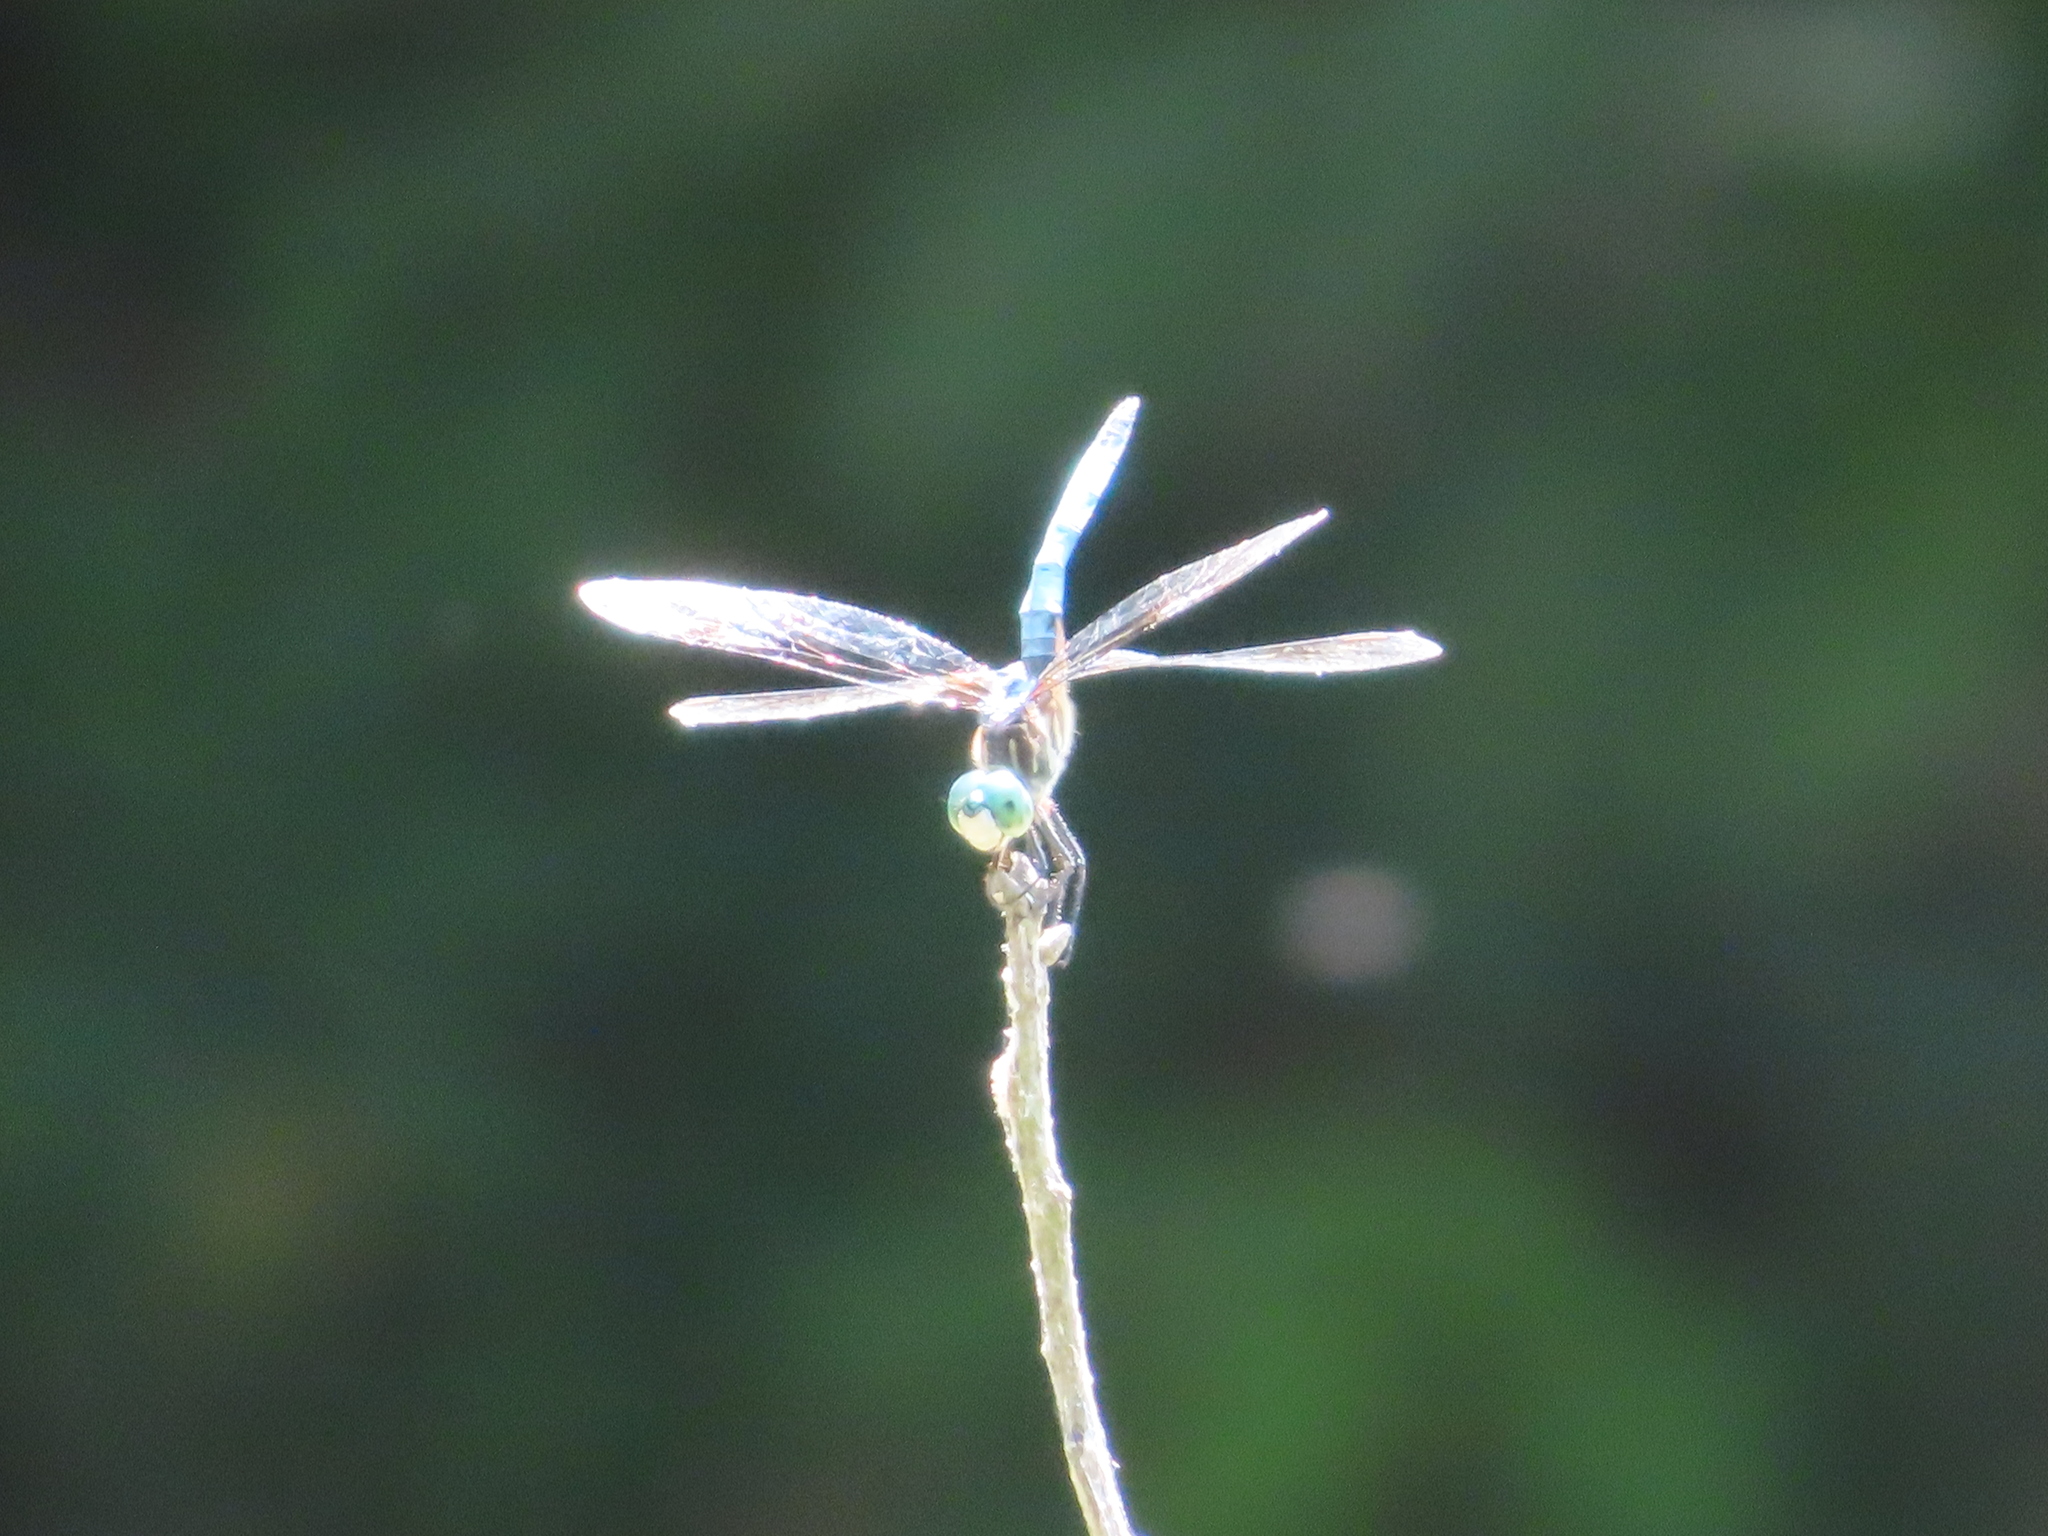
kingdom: Animalia
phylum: Arthropoda
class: Insecta
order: Odonata
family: Libellulidae
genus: Pachydiplax
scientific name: Pachydiplax longipennis
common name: Blue dasher
